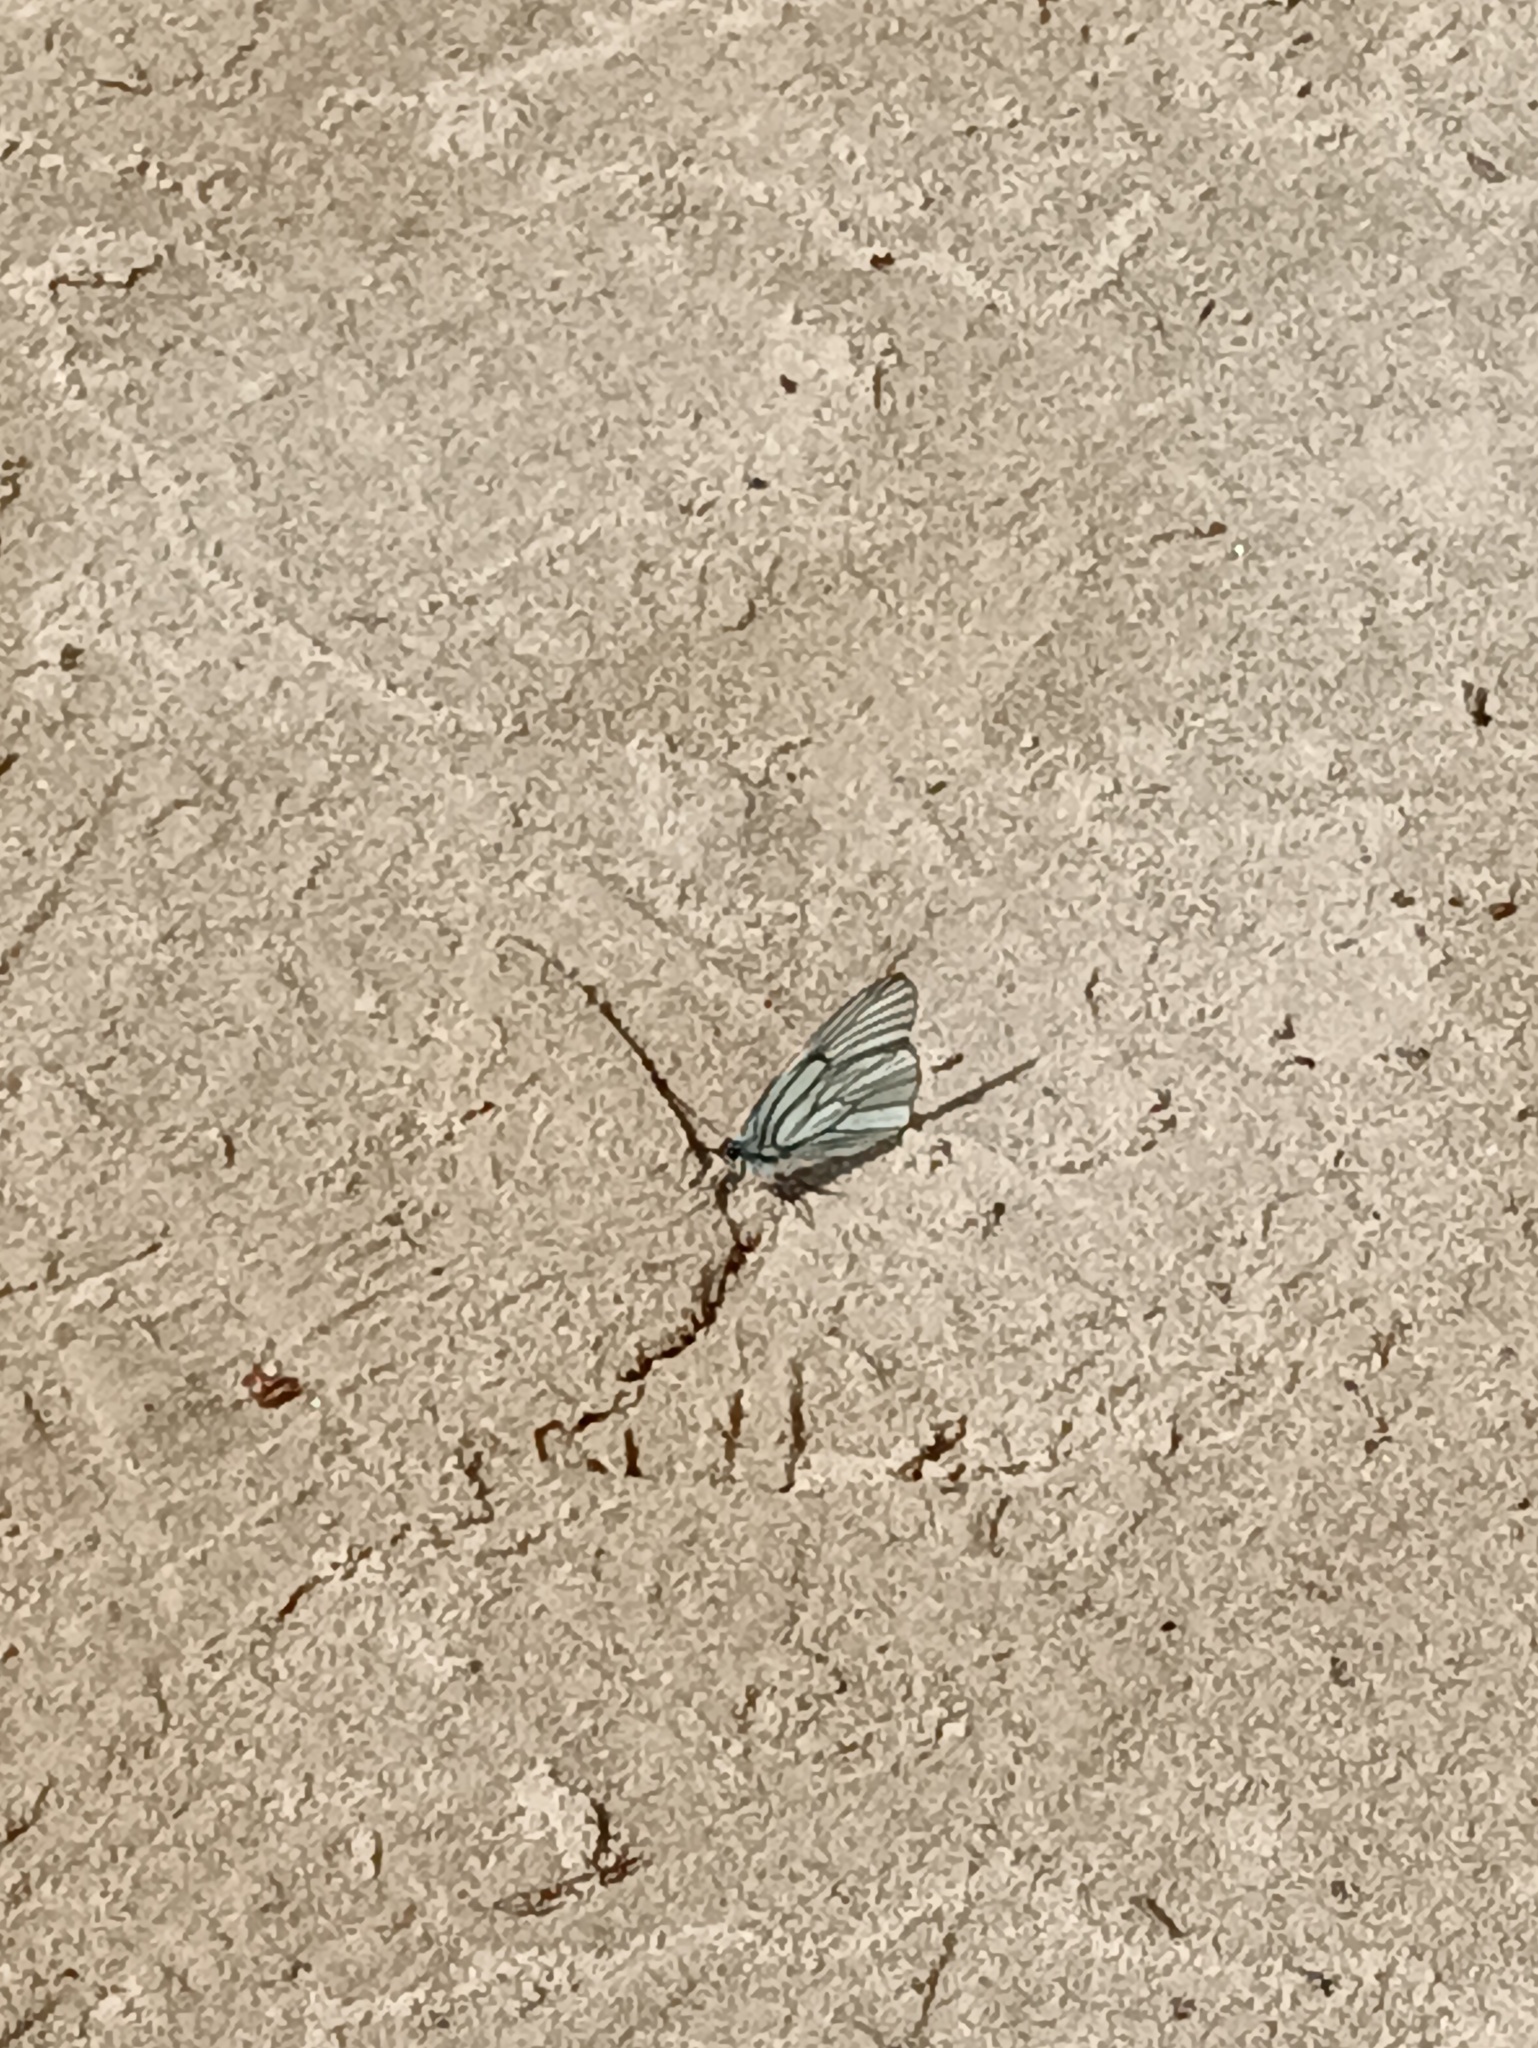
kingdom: Animalia
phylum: Arthropoda
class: Insecta
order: Lepidoptera
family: Pieridae
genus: Aporia
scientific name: Aporia crataegi
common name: Black-veined white
